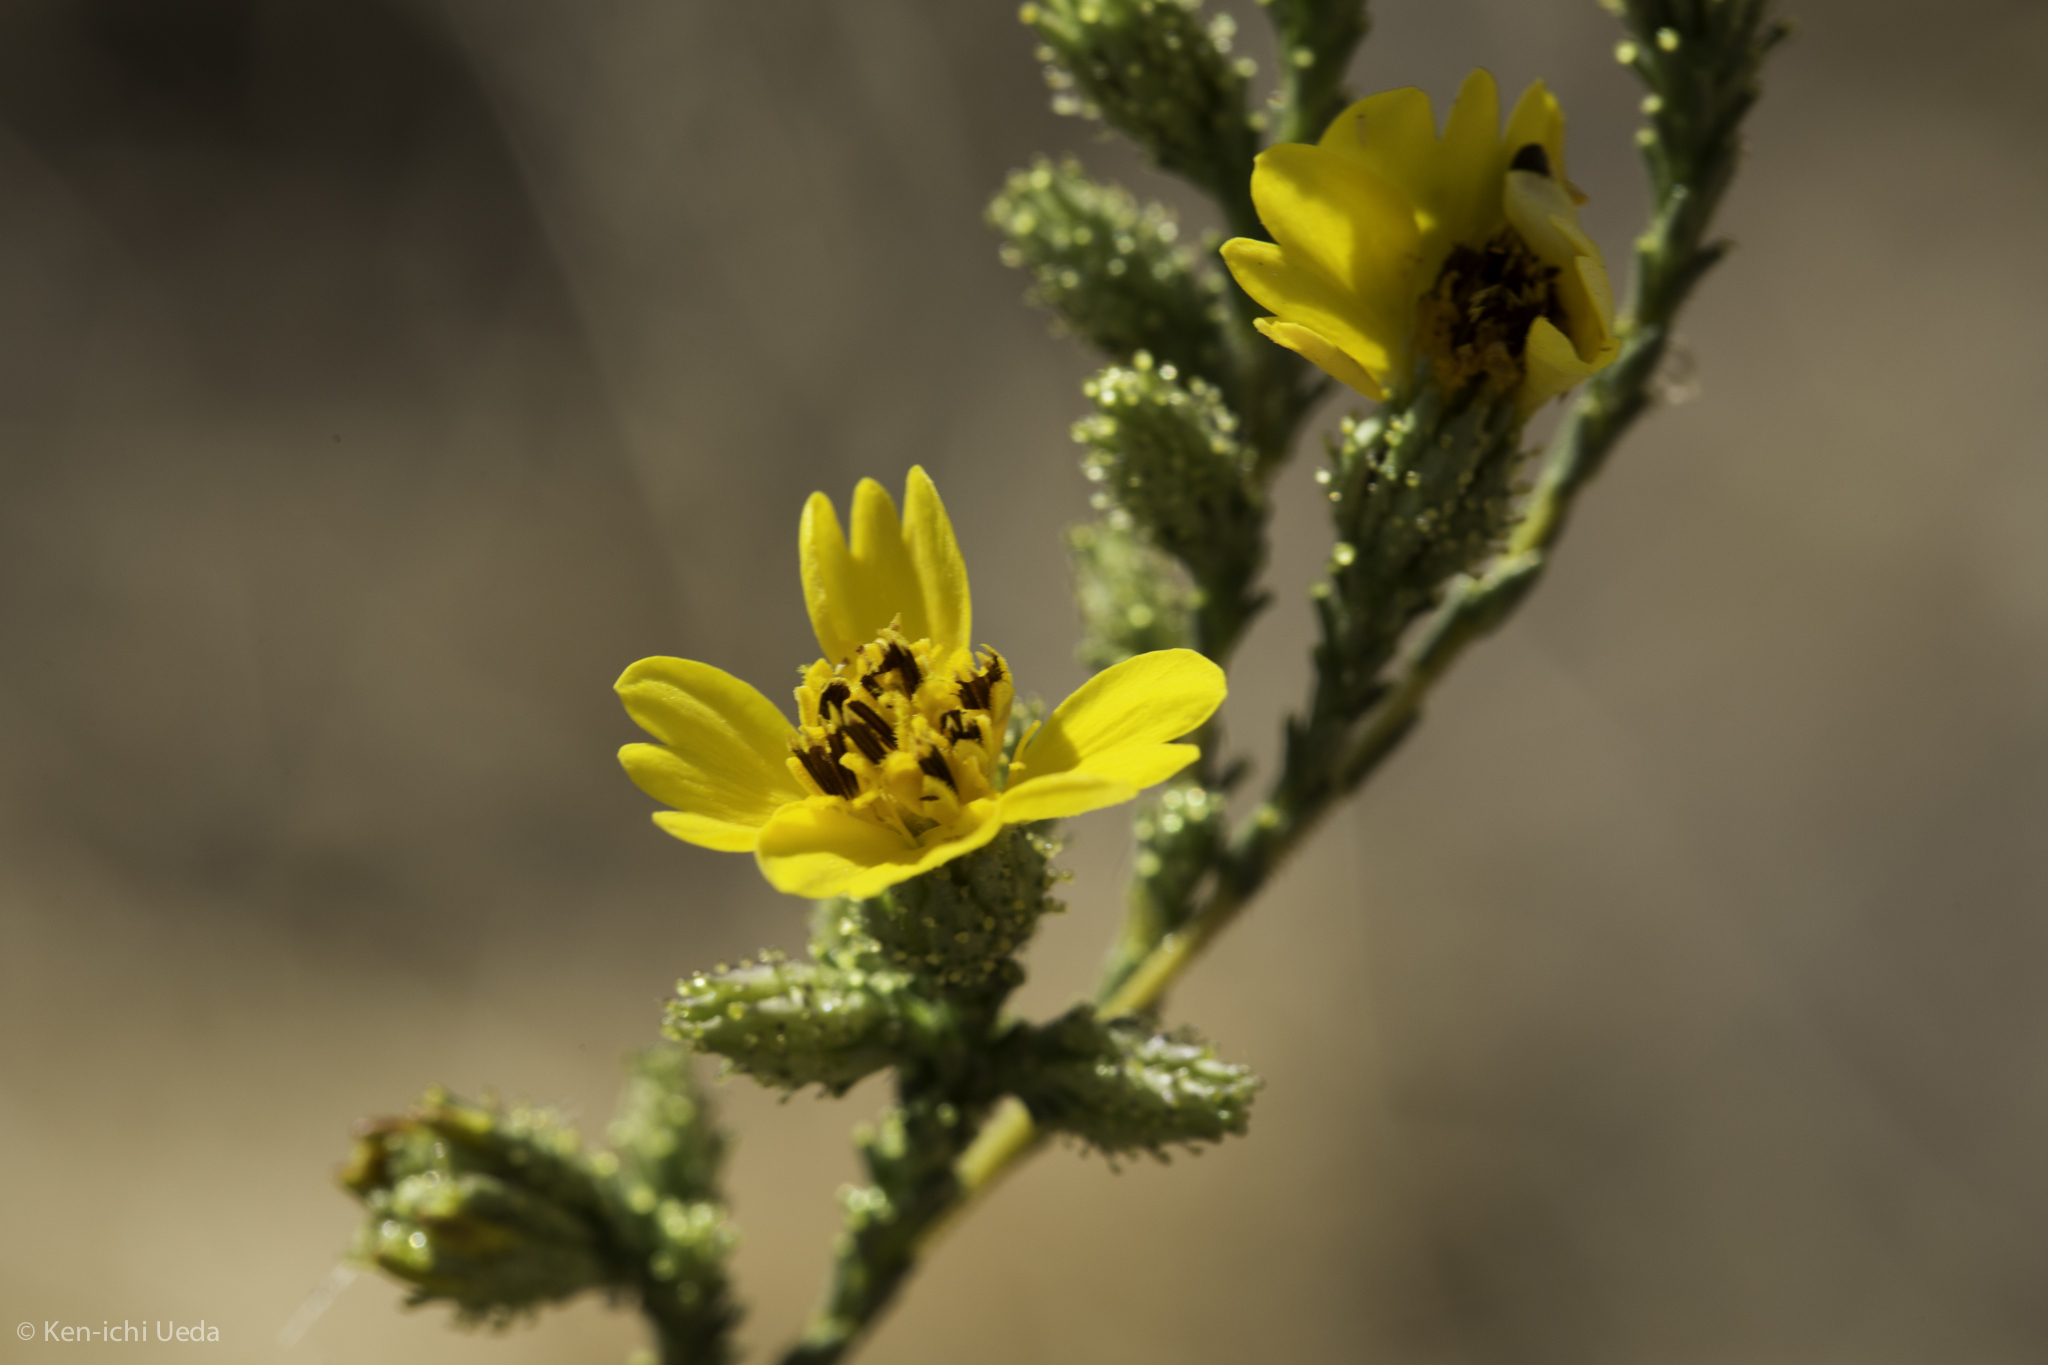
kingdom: Plantae
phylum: Tracheophyta
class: Magnoliopsida
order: Asterales
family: Asteraceae
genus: Holocarpha
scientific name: Holocarpha virgata
